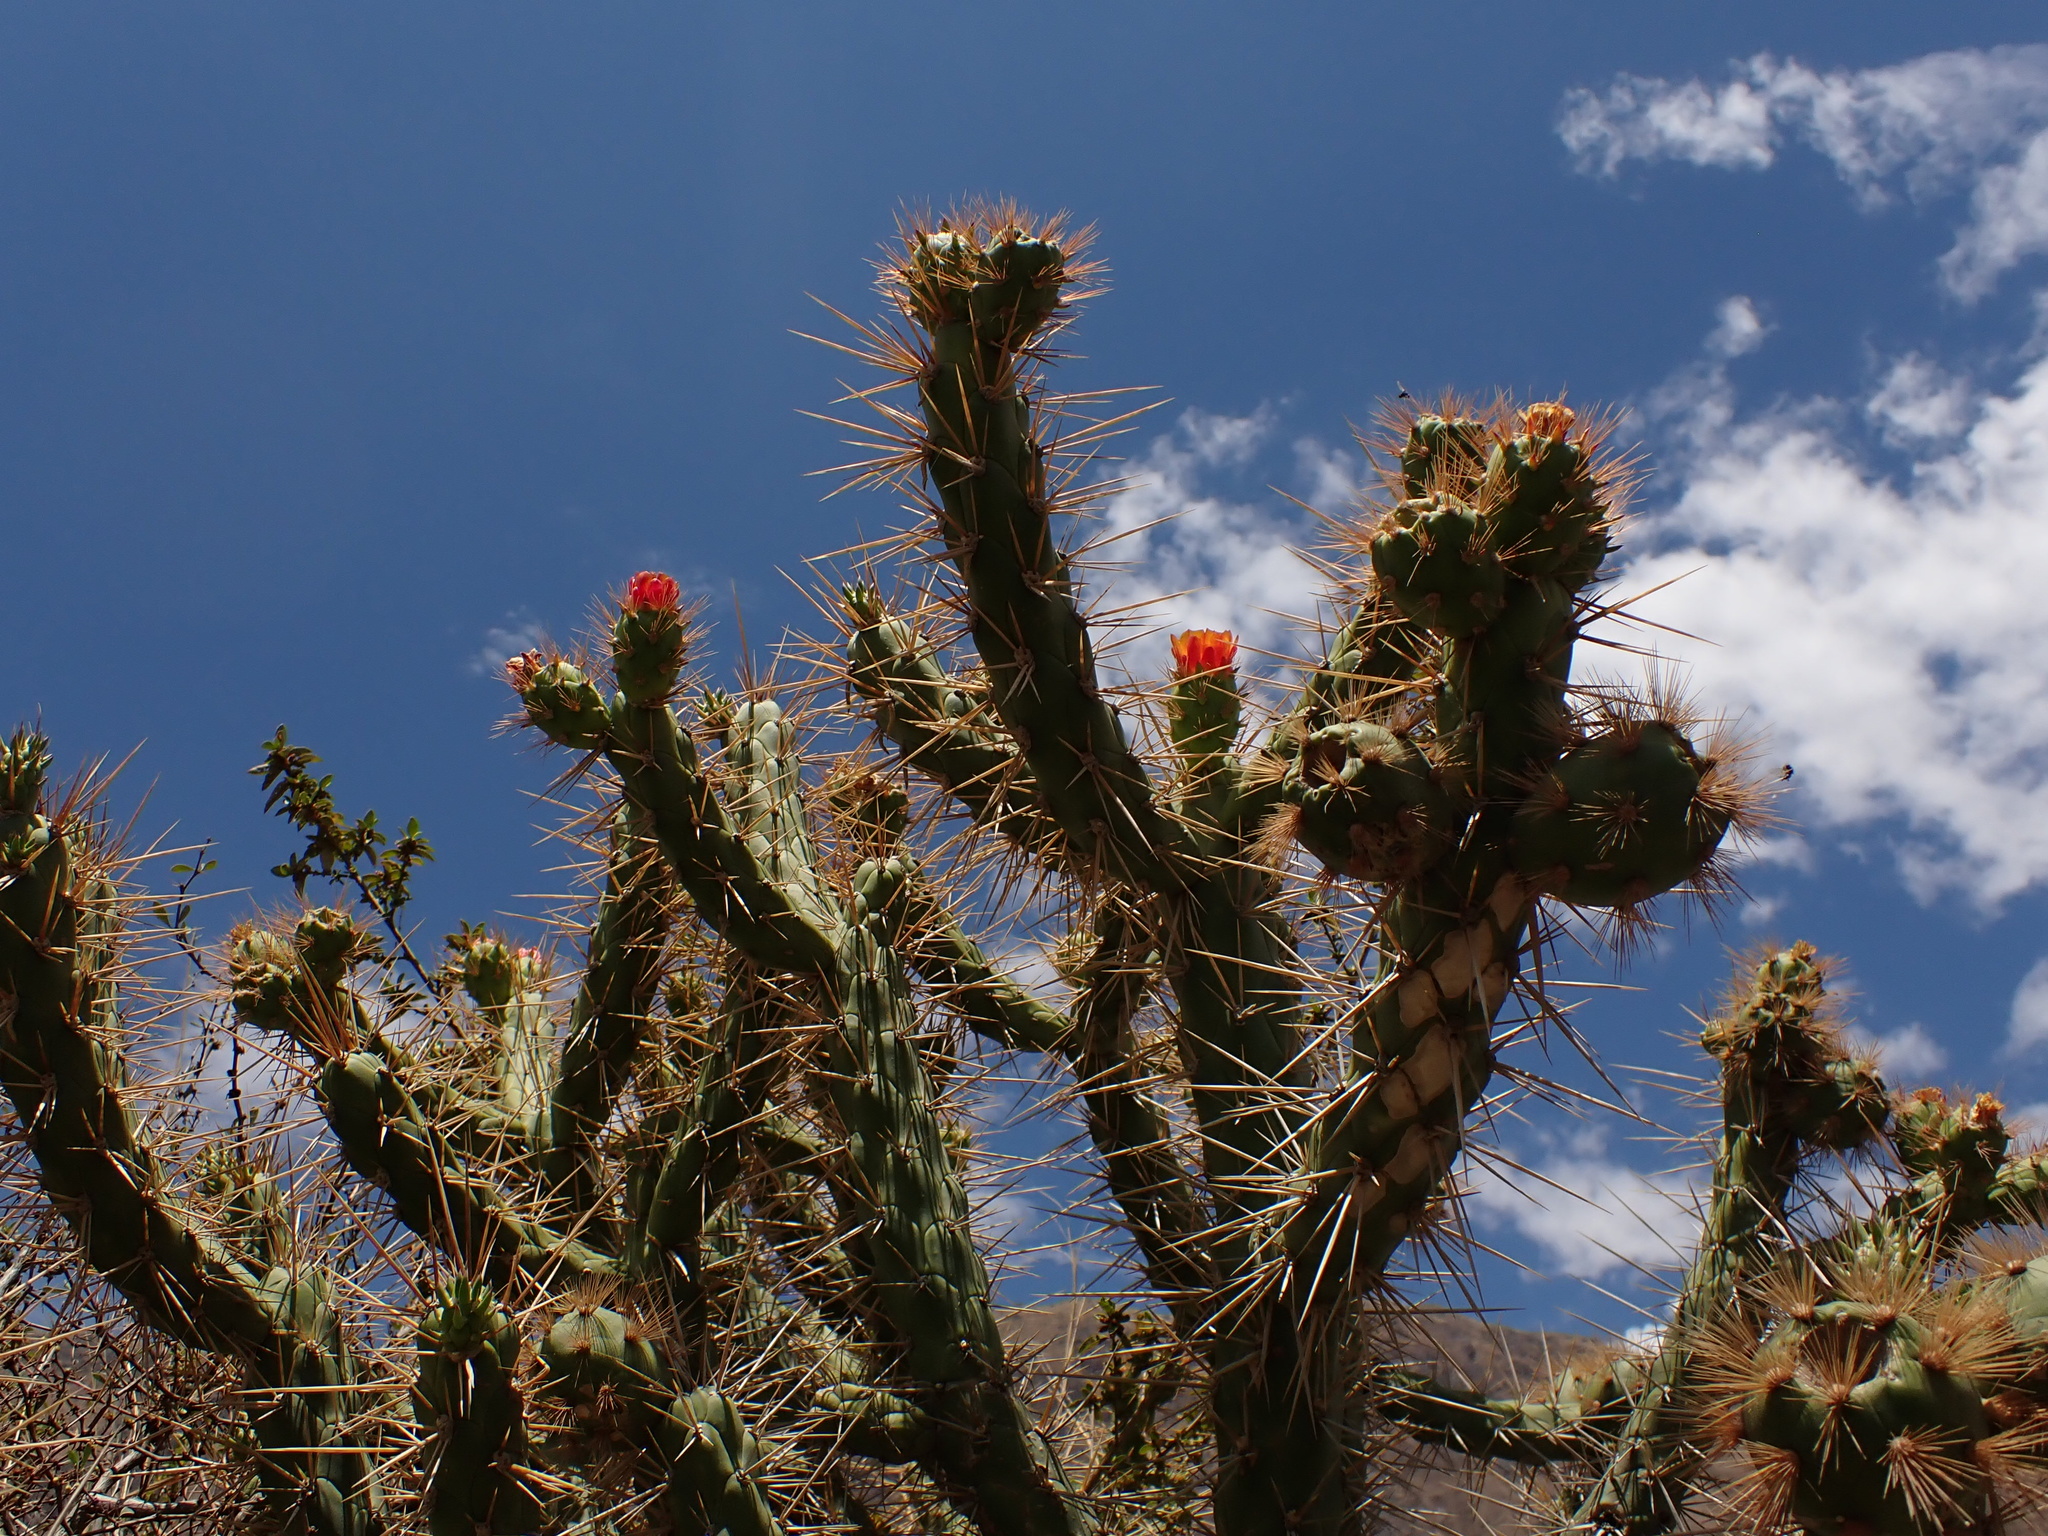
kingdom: Plantae
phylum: Tracheophyta
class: Magnoliopsida
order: Caryophyllales
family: Cactaceae
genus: Austrocylindropuntia
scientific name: Austrocylindropuntia subulata
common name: Eve's needle cactus
